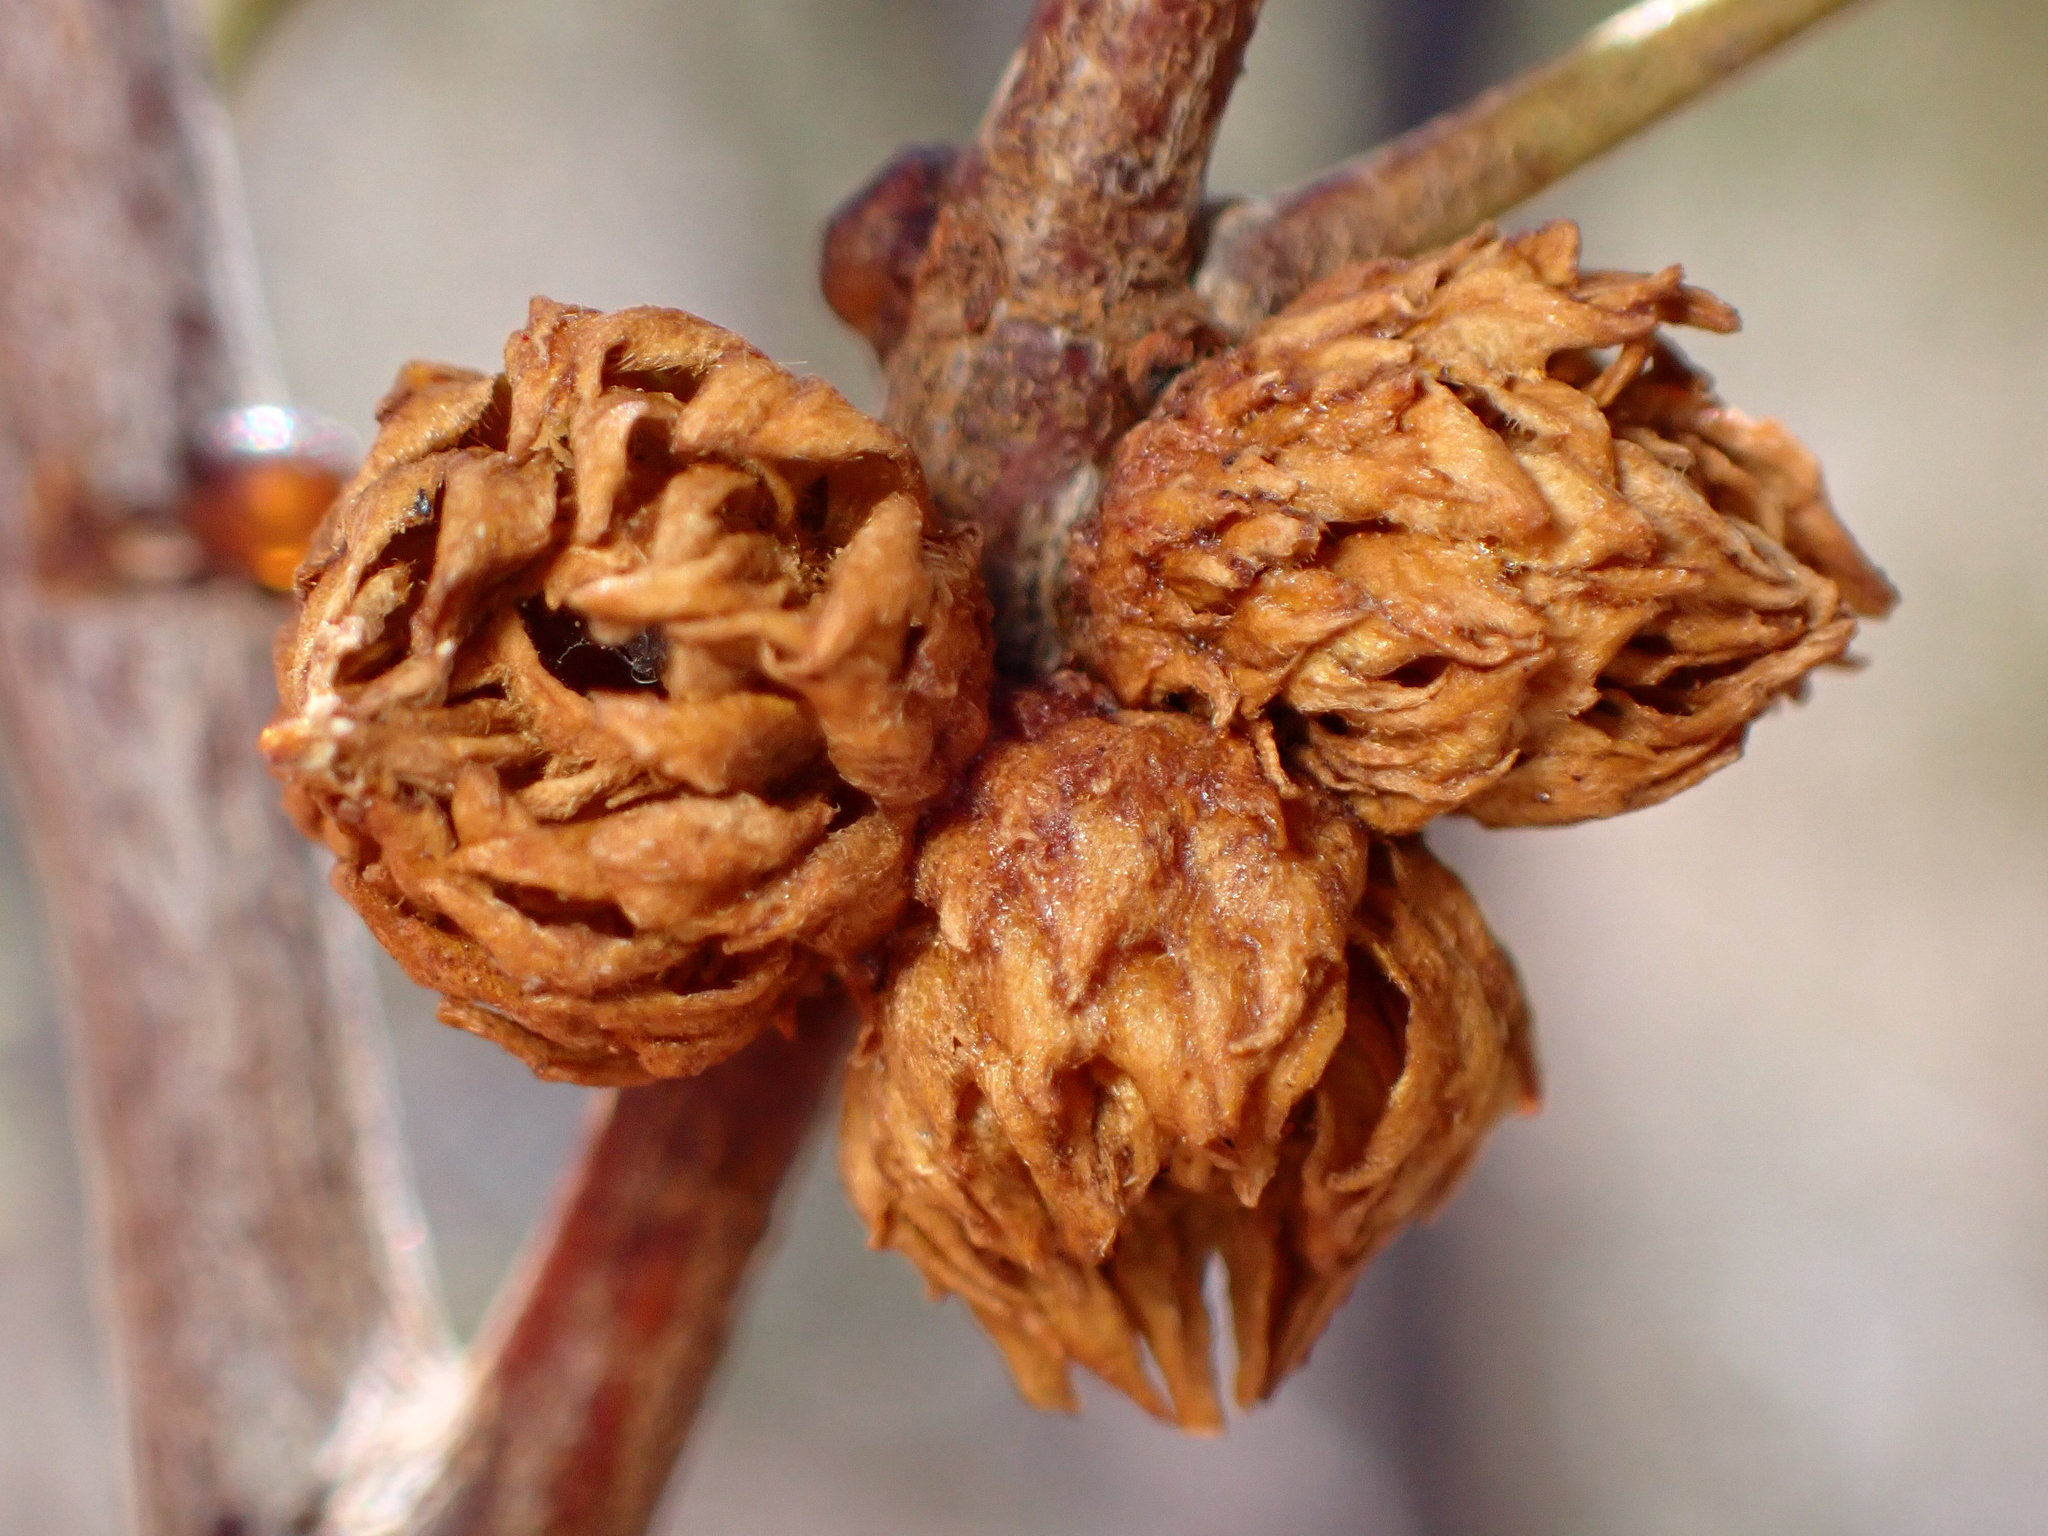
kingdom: Animalia
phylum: Arthropoda
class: Insecta
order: Diptera
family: Cecidomyiidae
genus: Asphondylia
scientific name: Asphondylia rosetta
